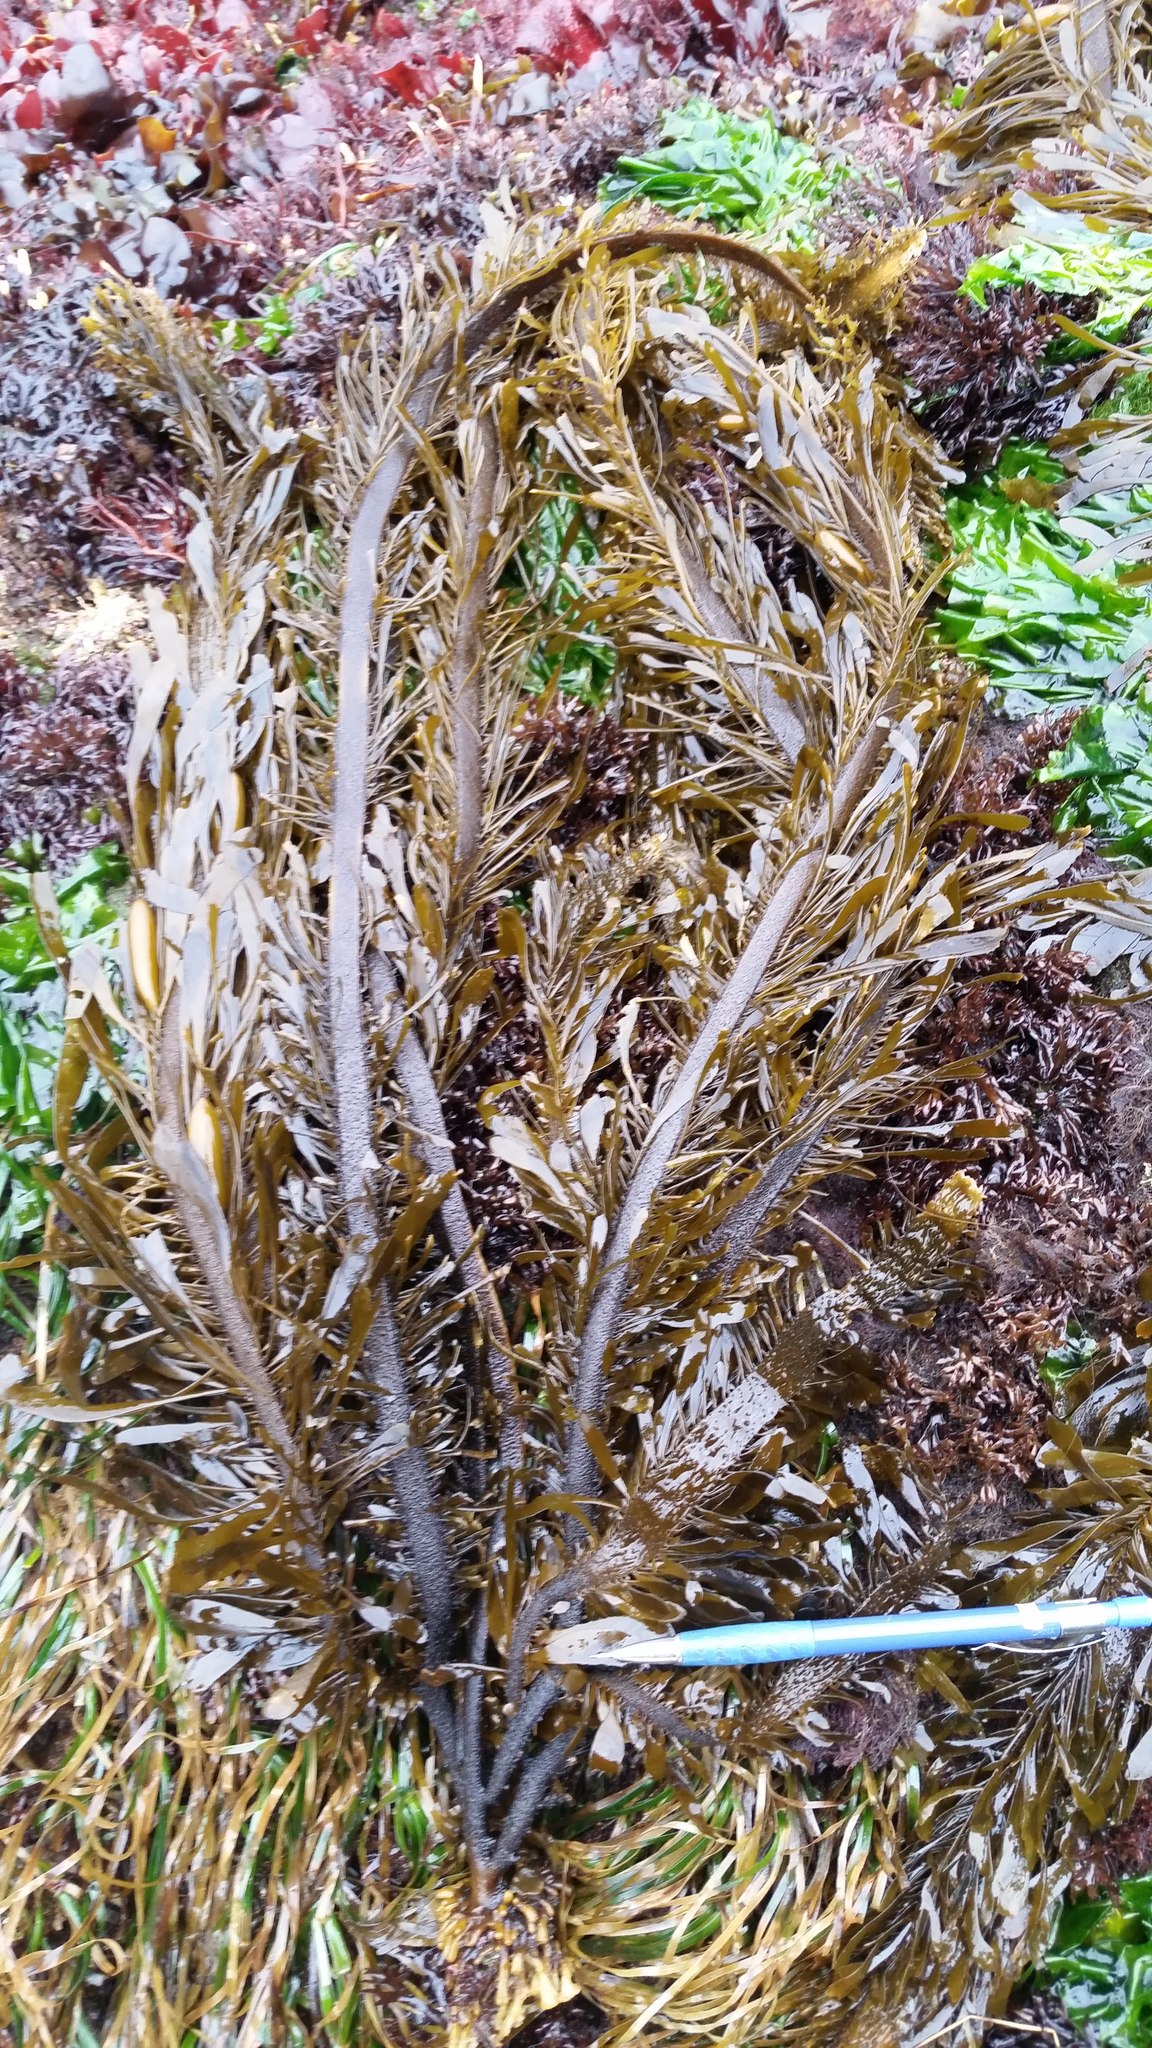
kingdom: Chromista
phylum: Ochrophyta
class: Phaeophyceae
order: Laminariales
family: Lessoniaceae
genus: Egregia
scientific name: Egregia menziesii
